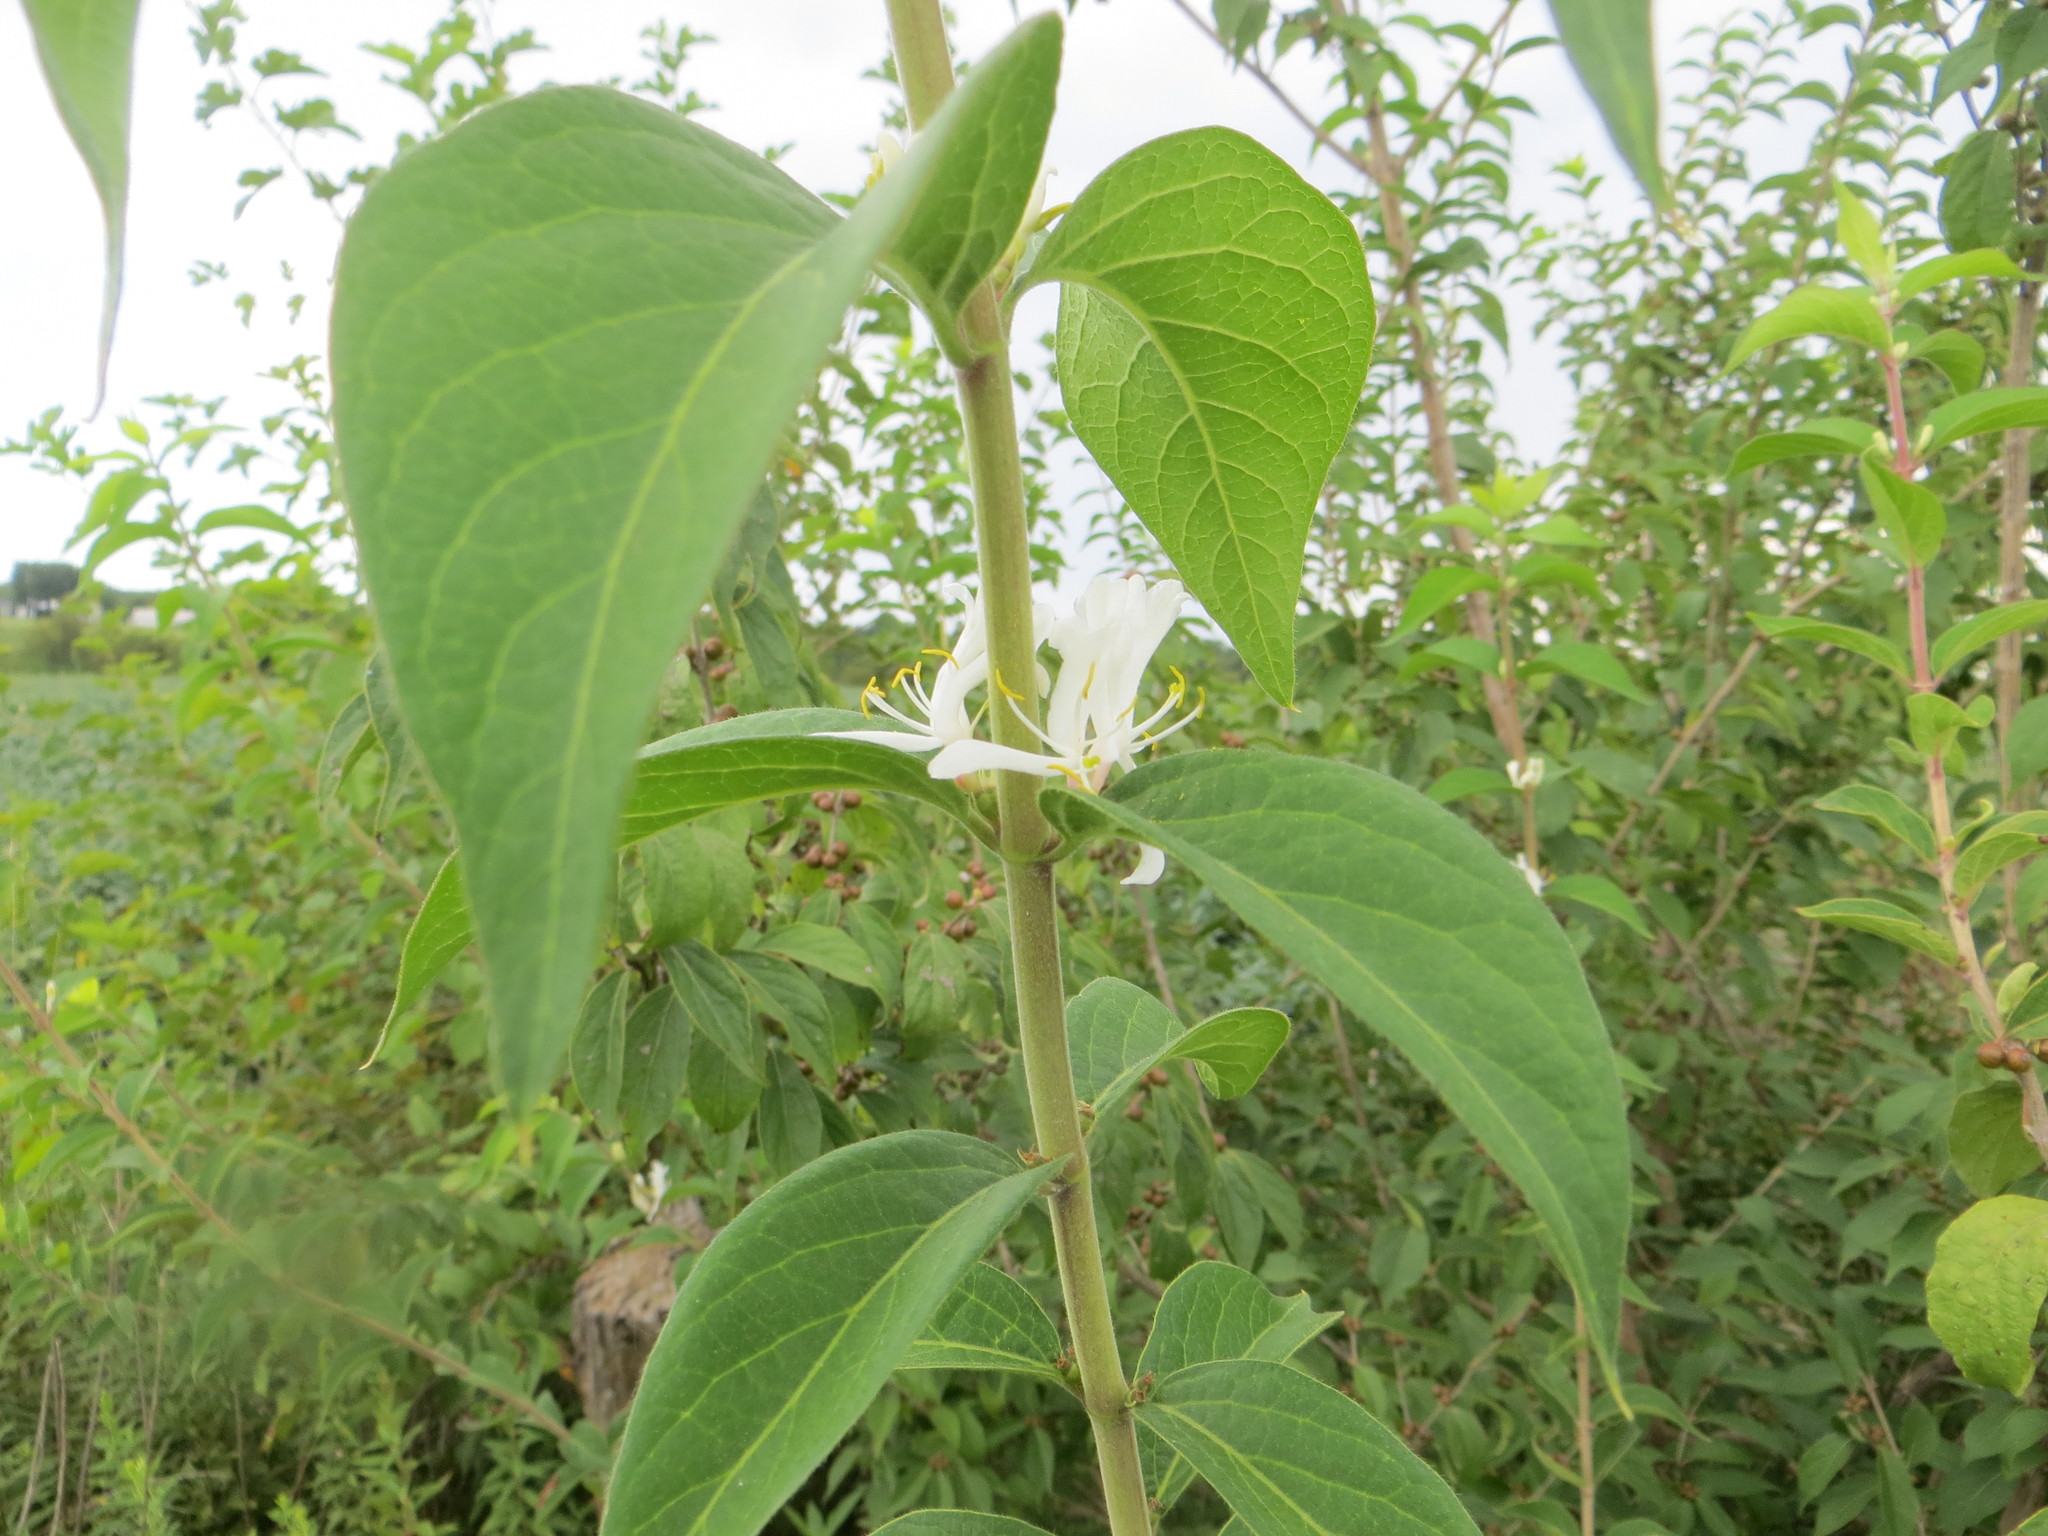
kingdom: Plantae
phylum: Tracheophyta
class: Magnoliopsida
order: Dipsacales
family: Caprifoliaceae
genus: Lonicera
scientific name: Lonicera maackii
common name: Amur honeysuckle
